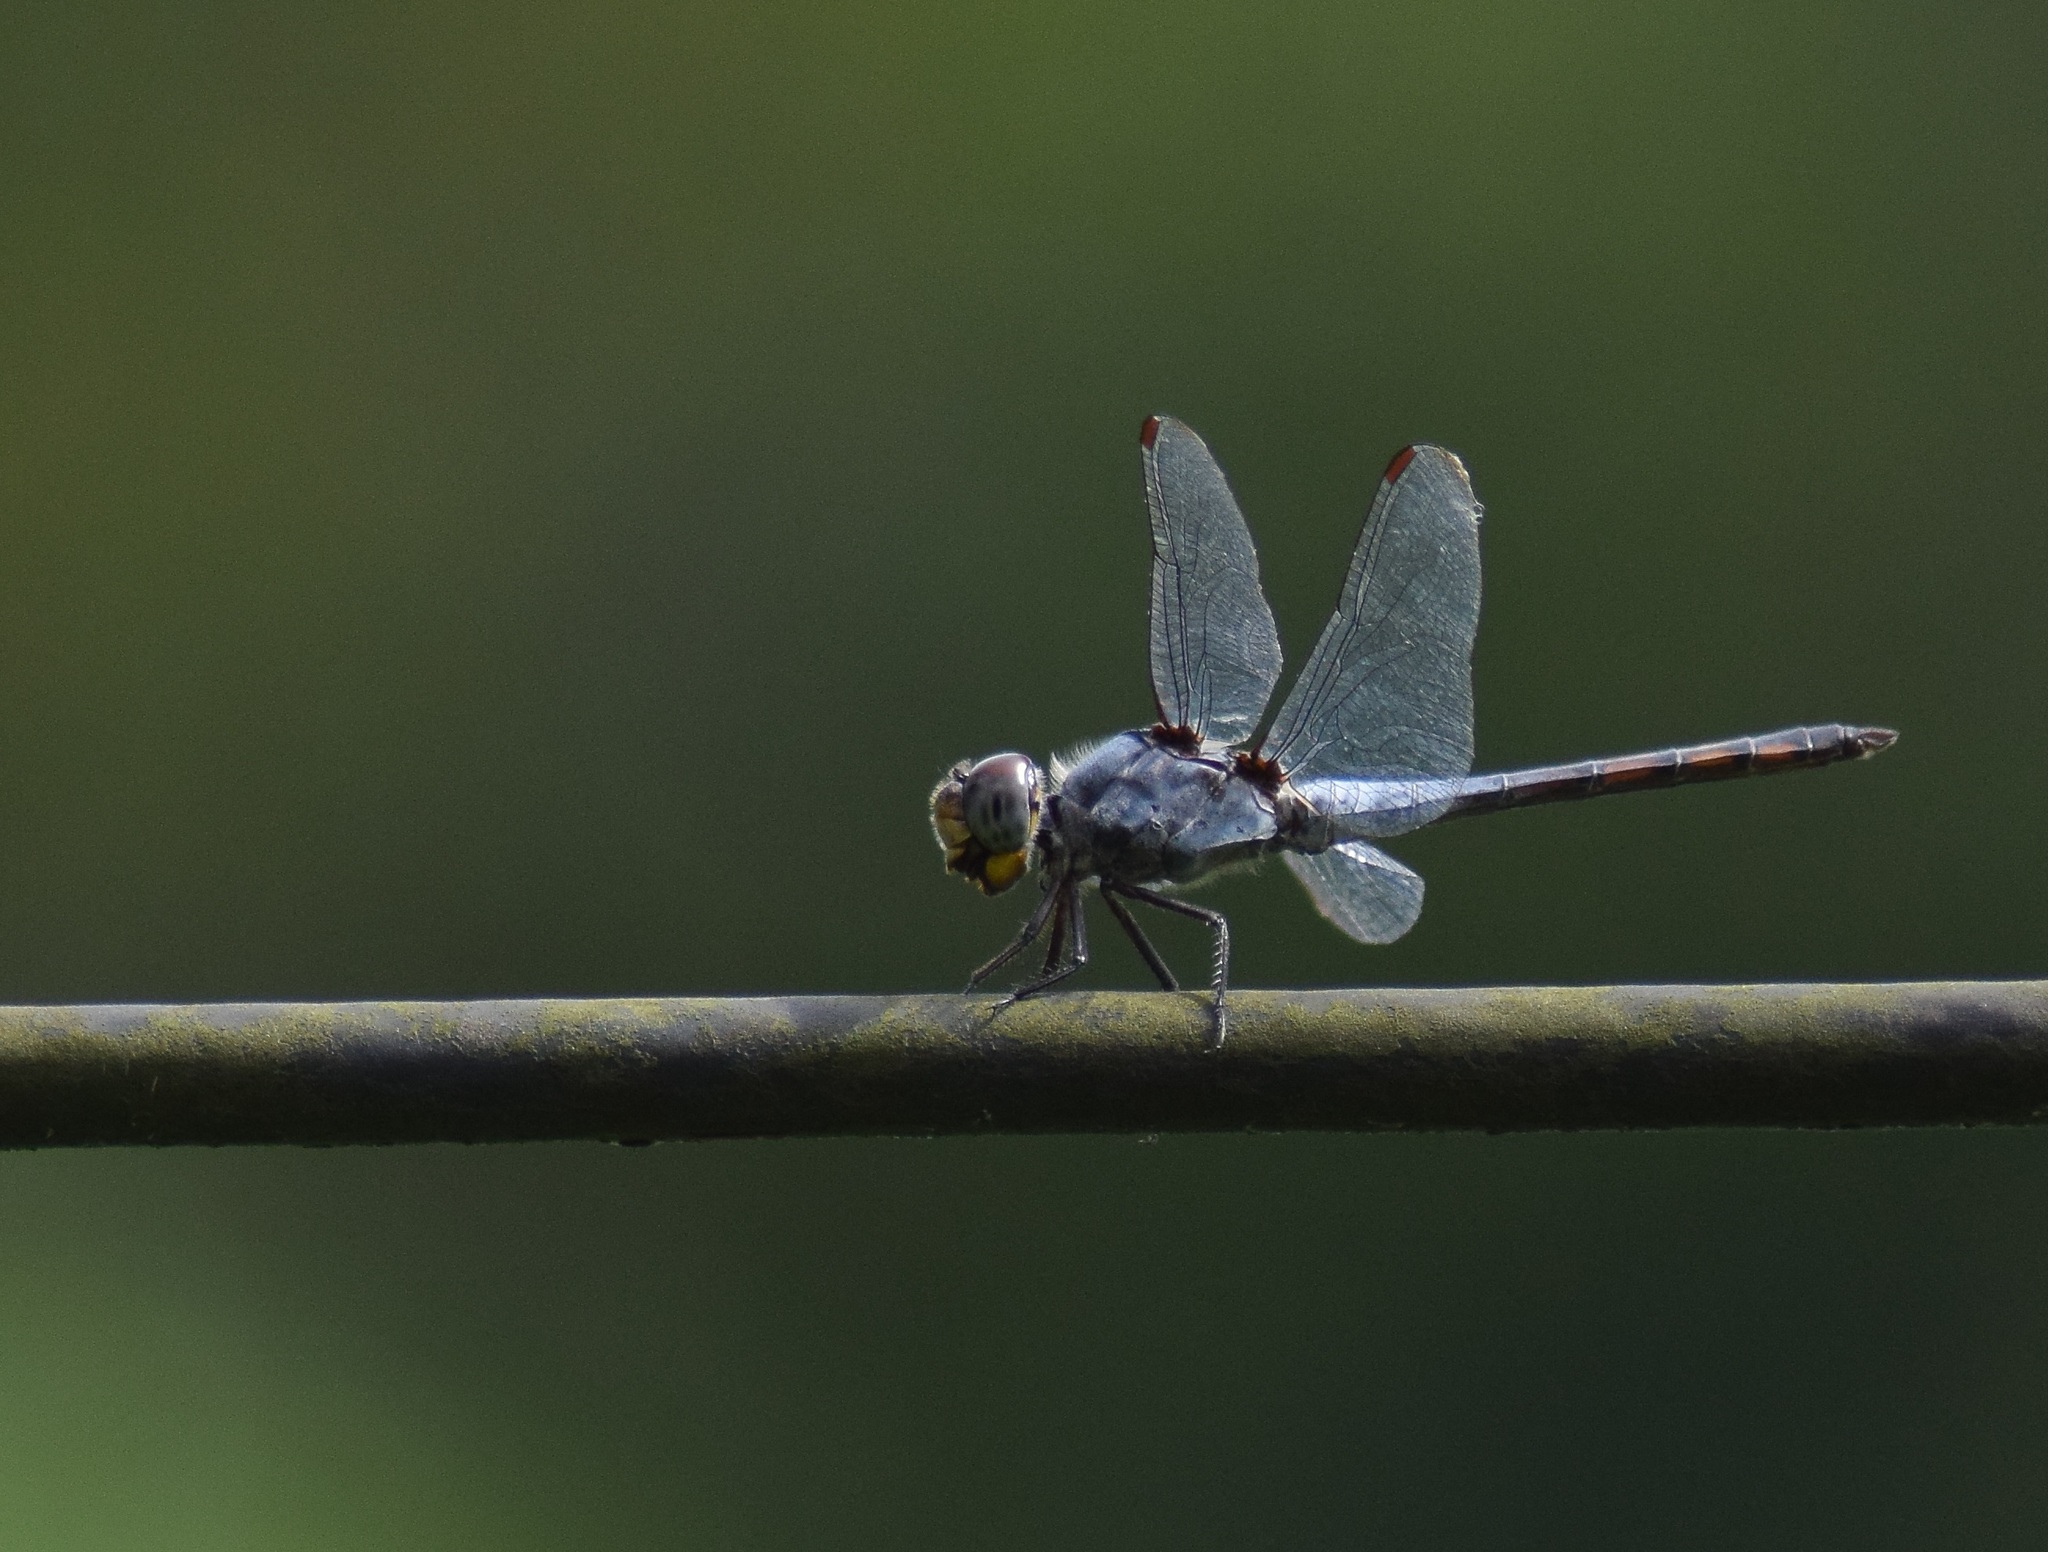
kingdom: Animalia
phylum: Arthropoda
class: Insecta
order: Odonata
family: Libellulidae
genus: Potamarcha
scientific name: Potamarcha congener
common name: Blue chaser
